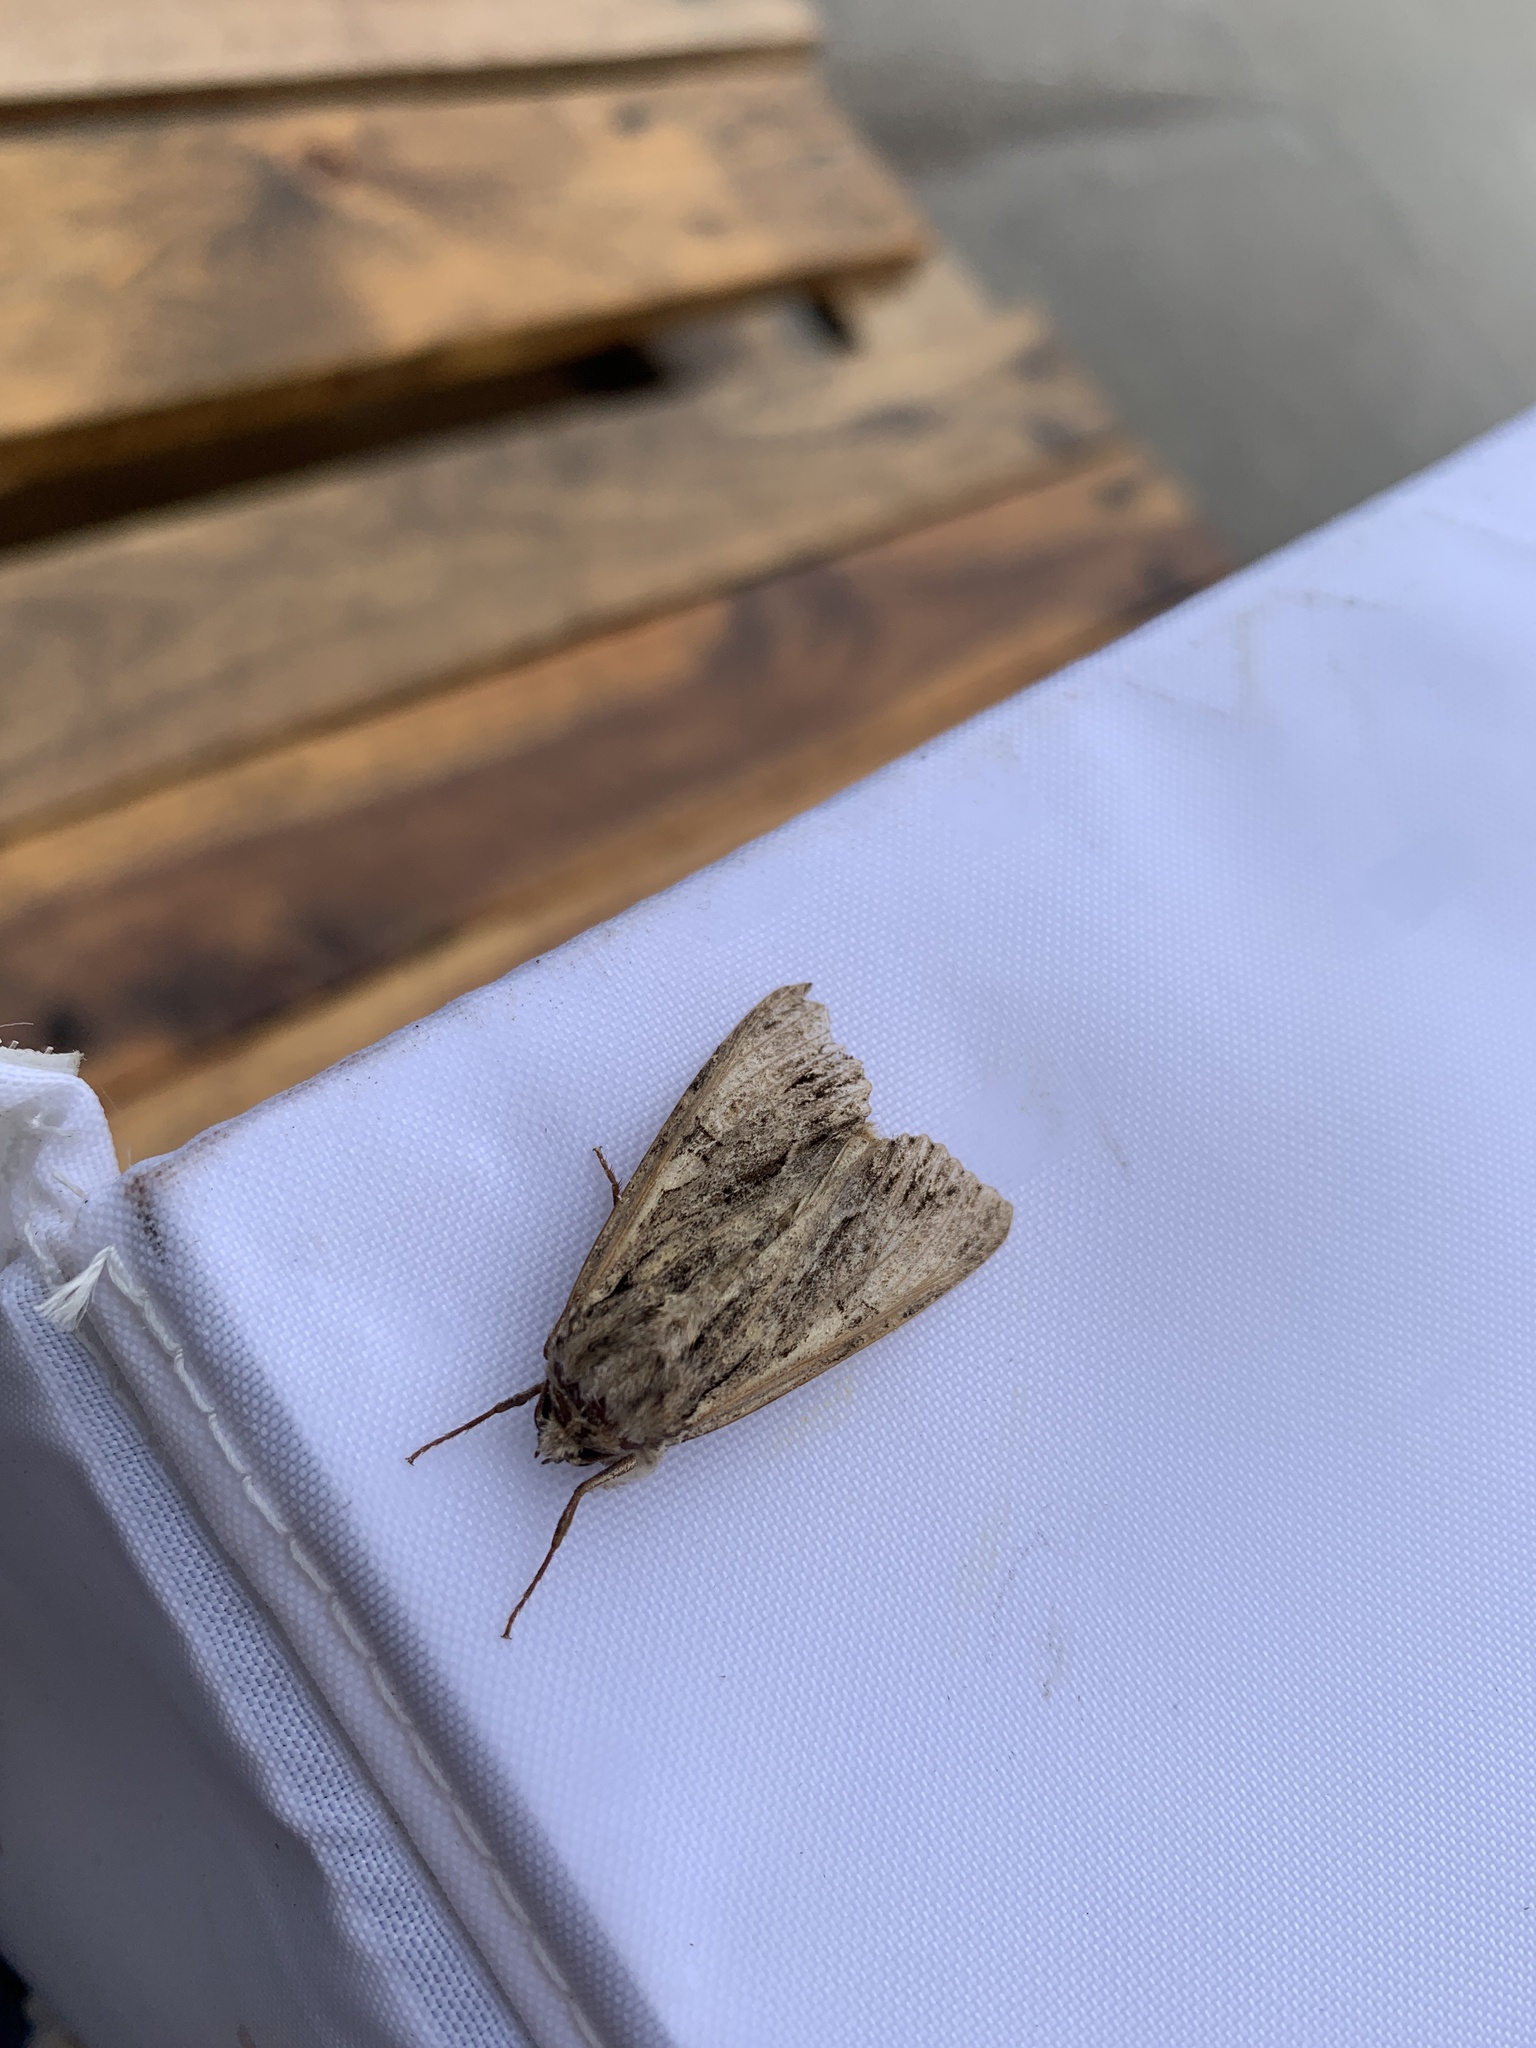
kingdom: Animalia
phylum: Arthropoda
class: Insecta
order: Lepidoptera
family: Noctuidae
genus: Apamea
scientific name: Apamea monoglypha
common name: Dark arches
